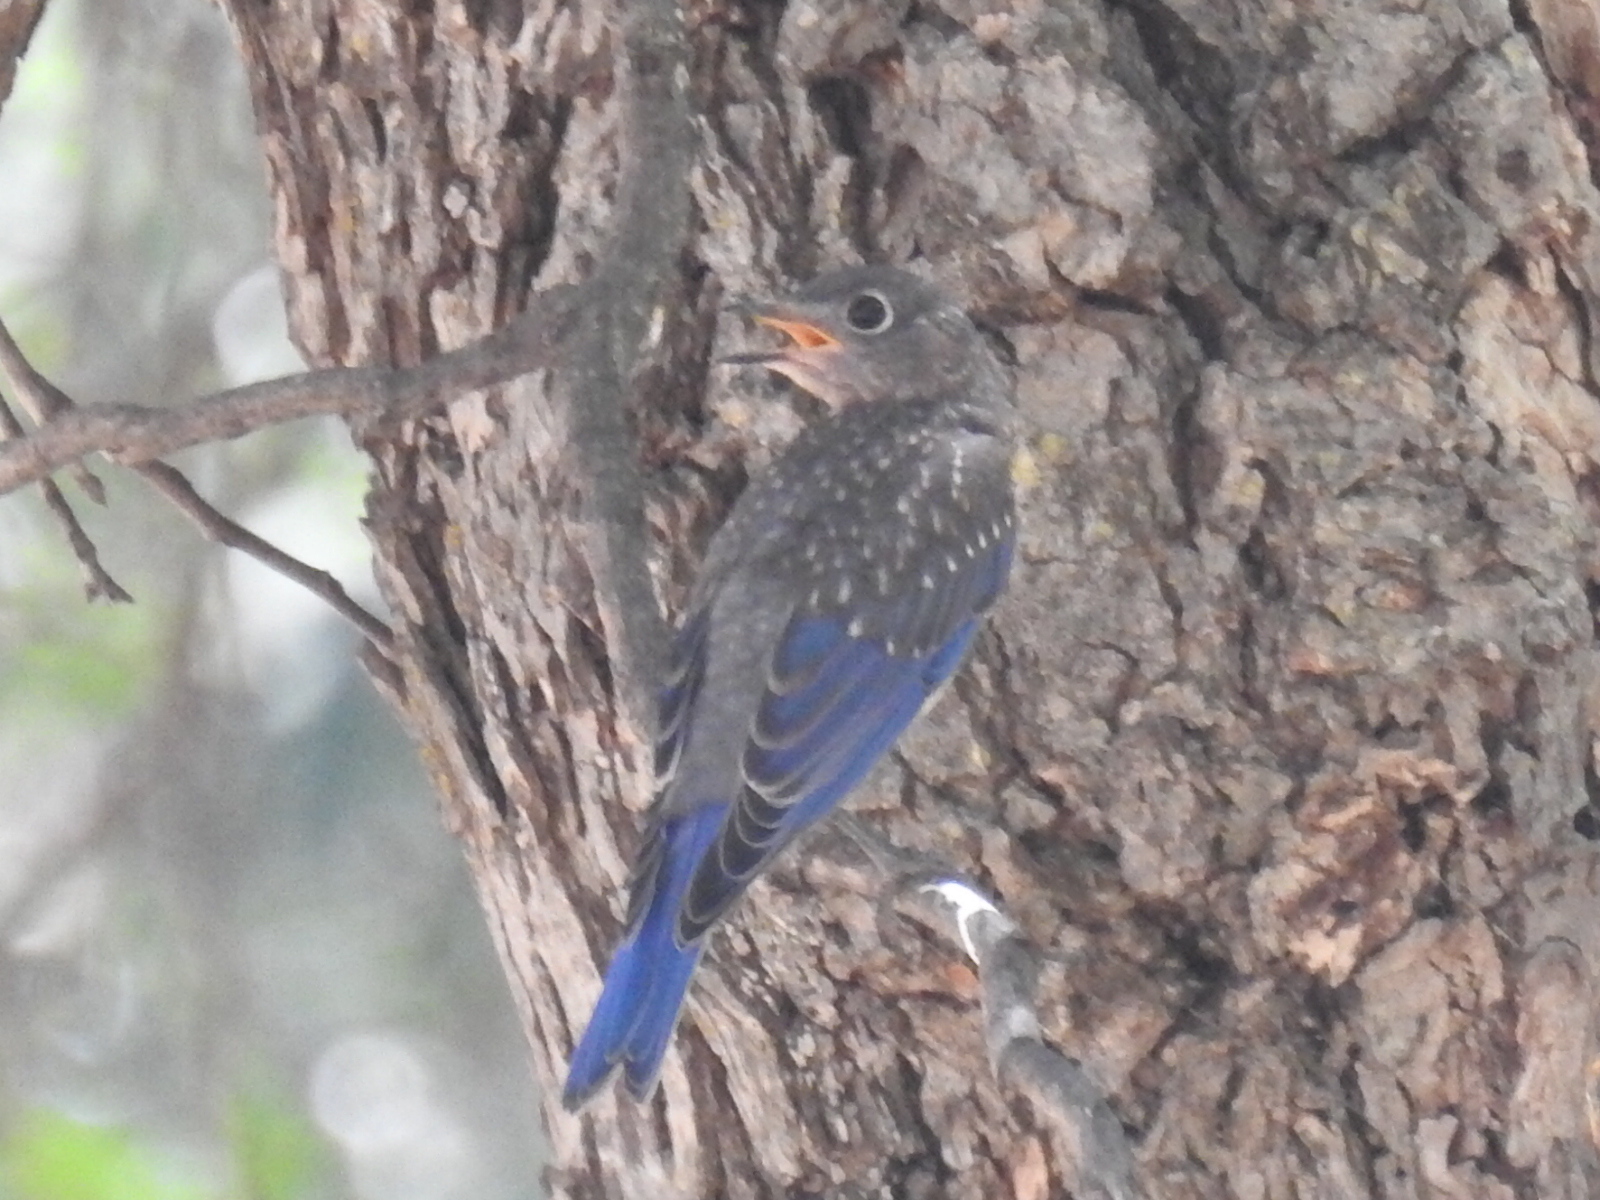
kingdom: Animalia
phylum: Chordata
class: Aves
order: Passeriformes
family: Turdidae
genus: Sialia
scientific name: Sialia sialis
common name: Eastern bluebird
